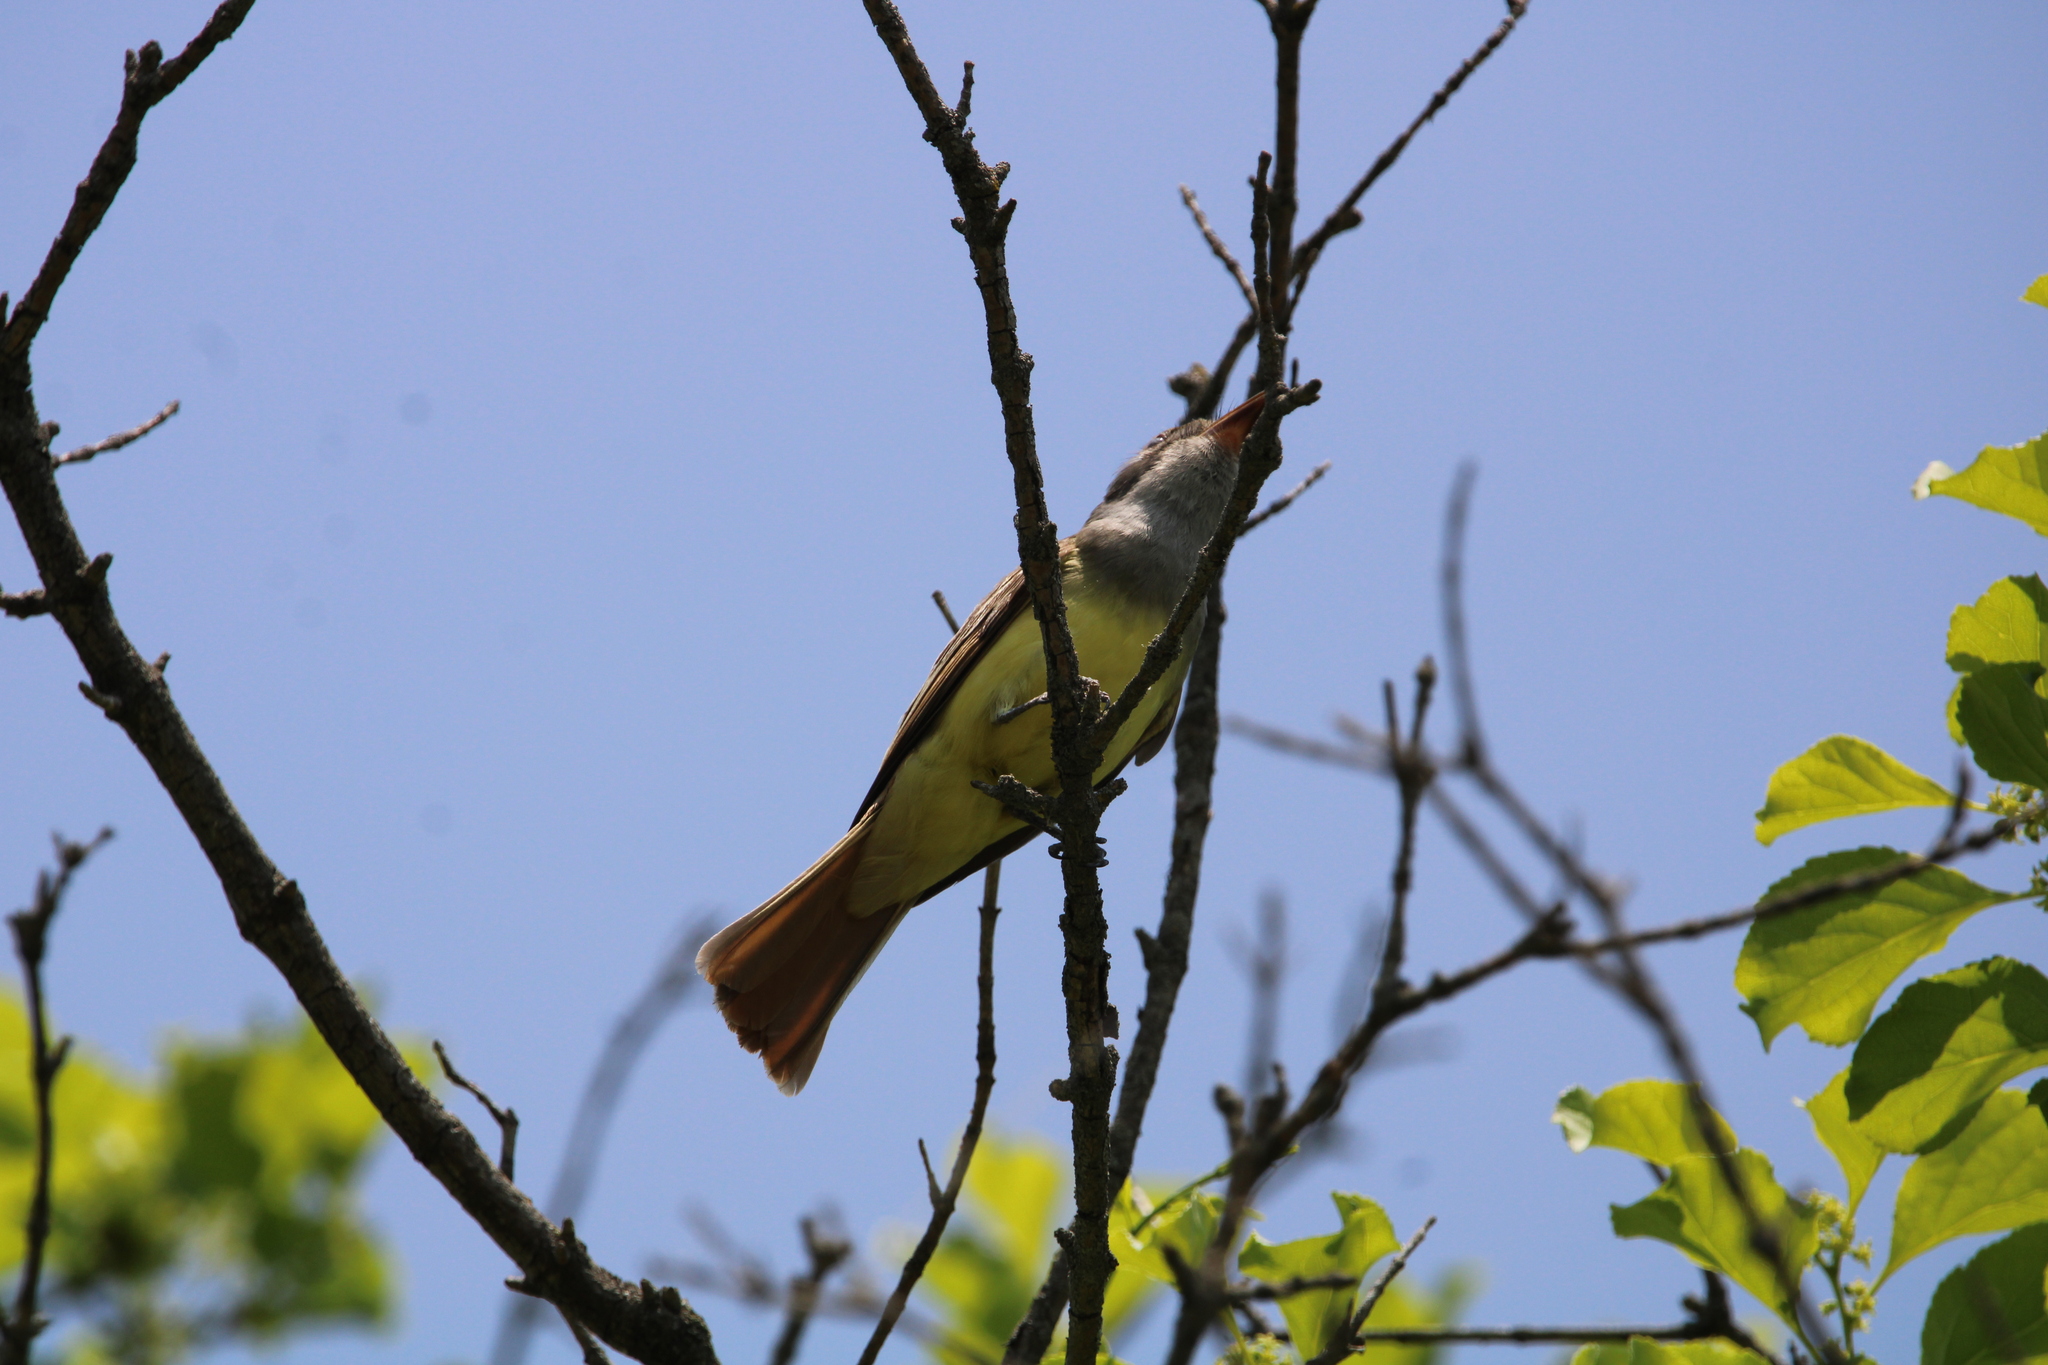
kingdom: Animalia
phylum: Chordata
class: Aves
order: Passeriformes
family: Tyrannidae
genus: Myiarchus
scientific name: Myiarchus crinitus
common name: Great crested flycatcher
